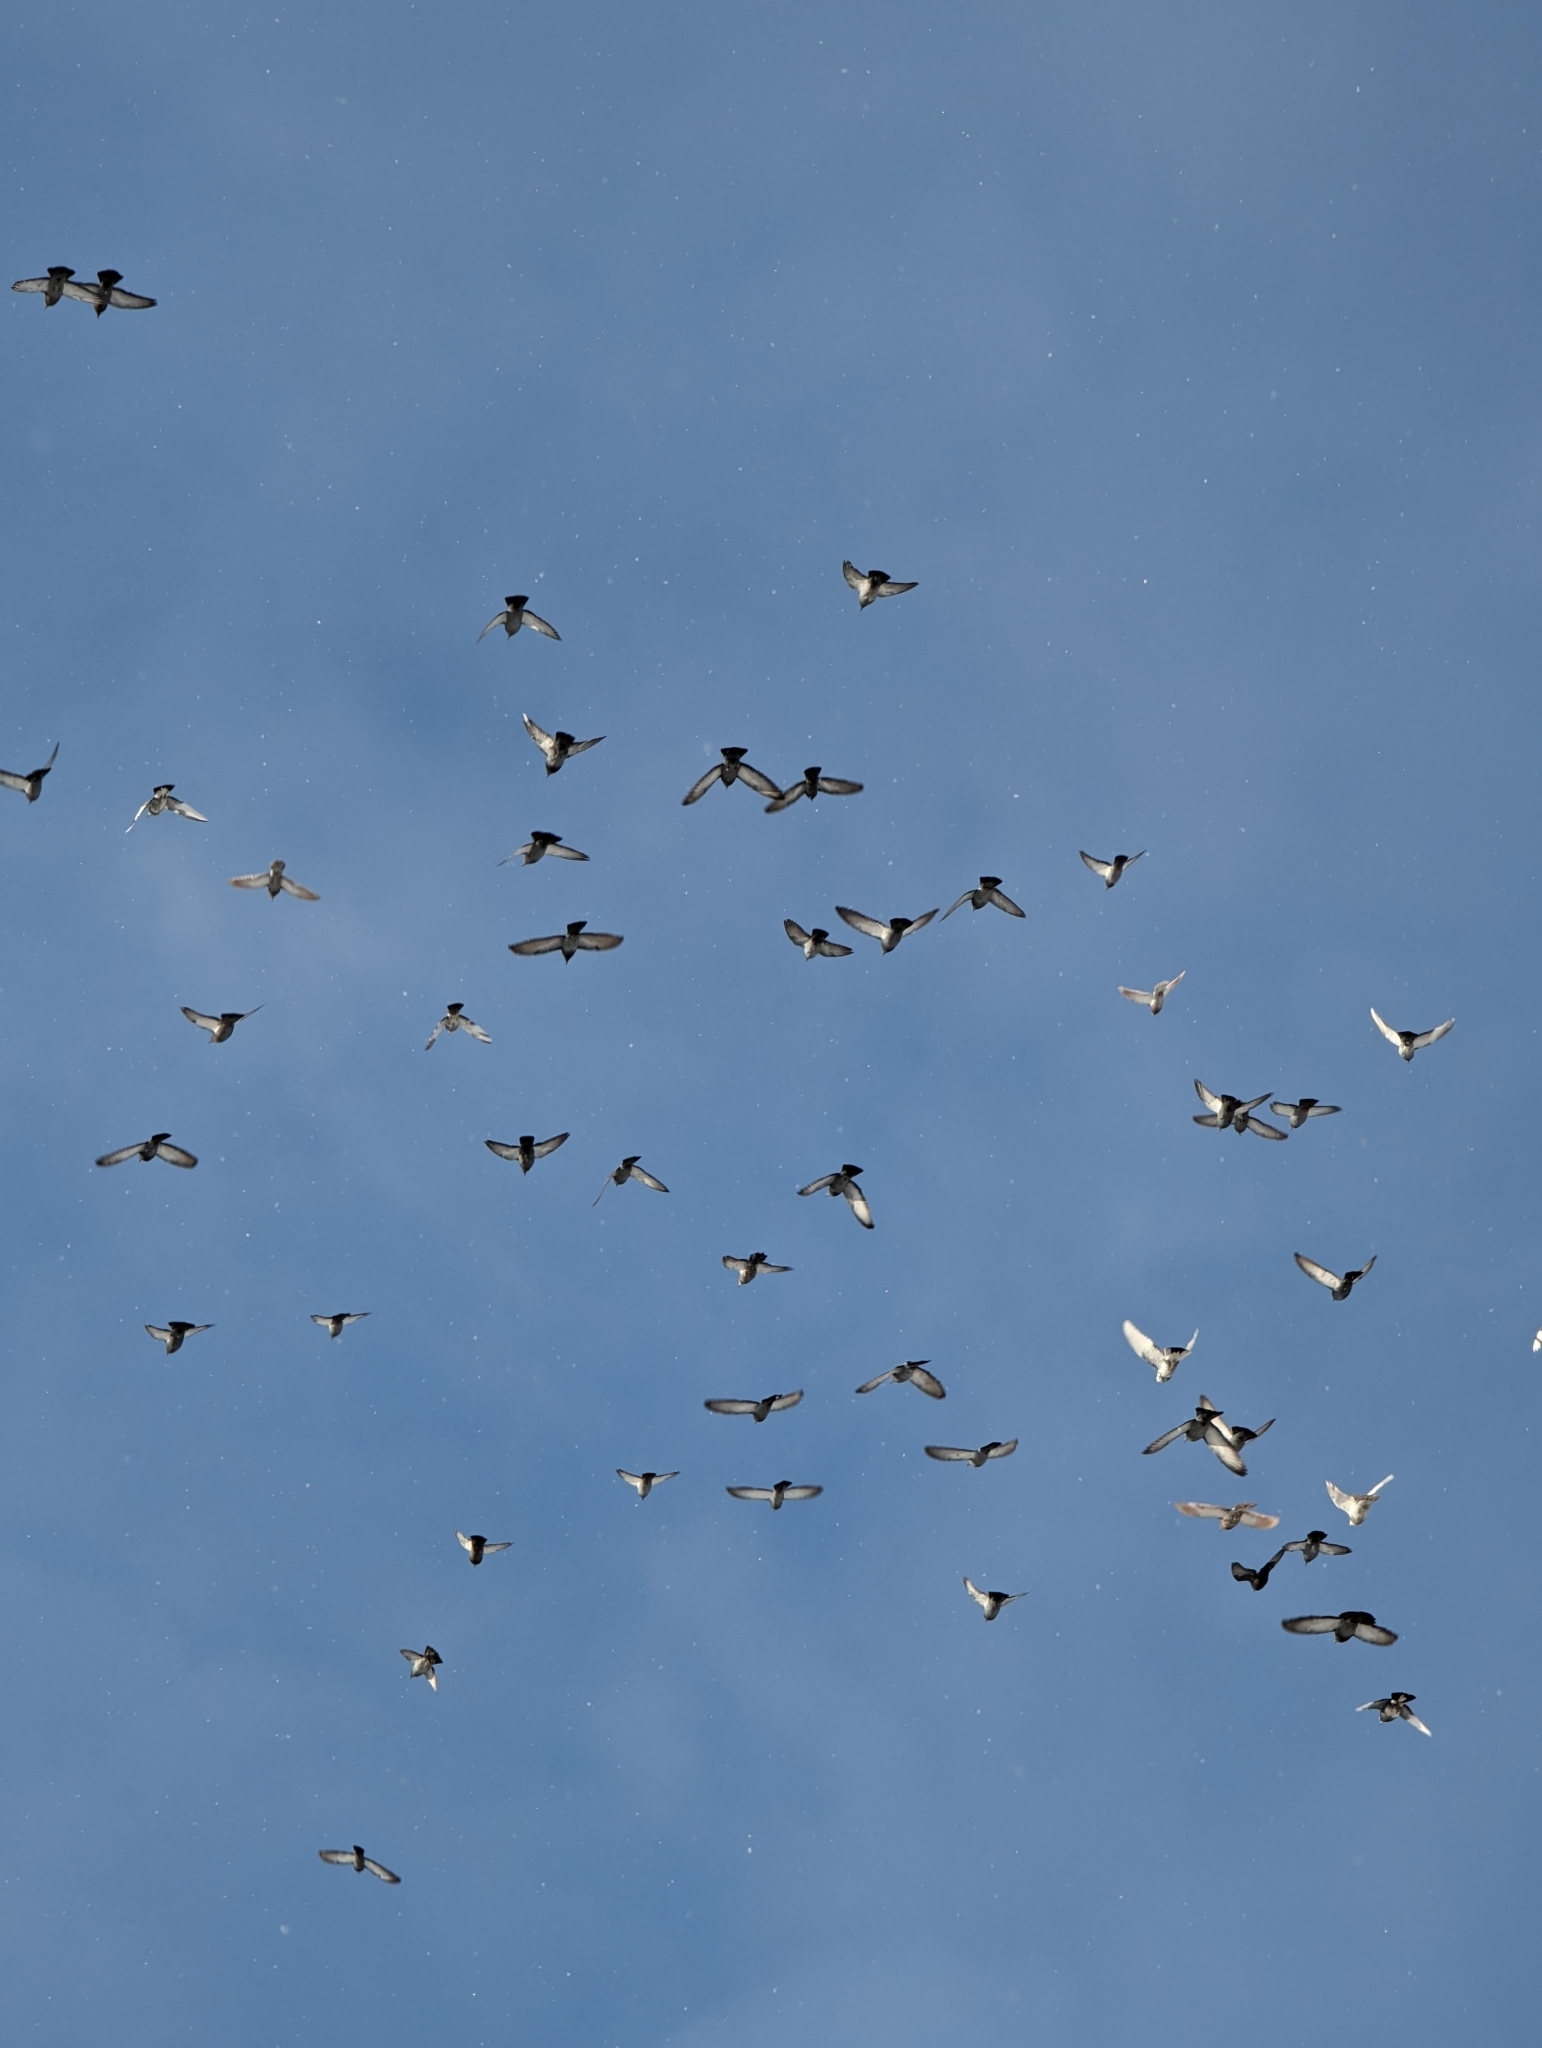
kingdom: Animalia
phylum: Chordata
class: Aves
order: Columbiformes
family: Columbidae
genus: Columba
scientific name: Columba livia
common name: Rock pigeon
